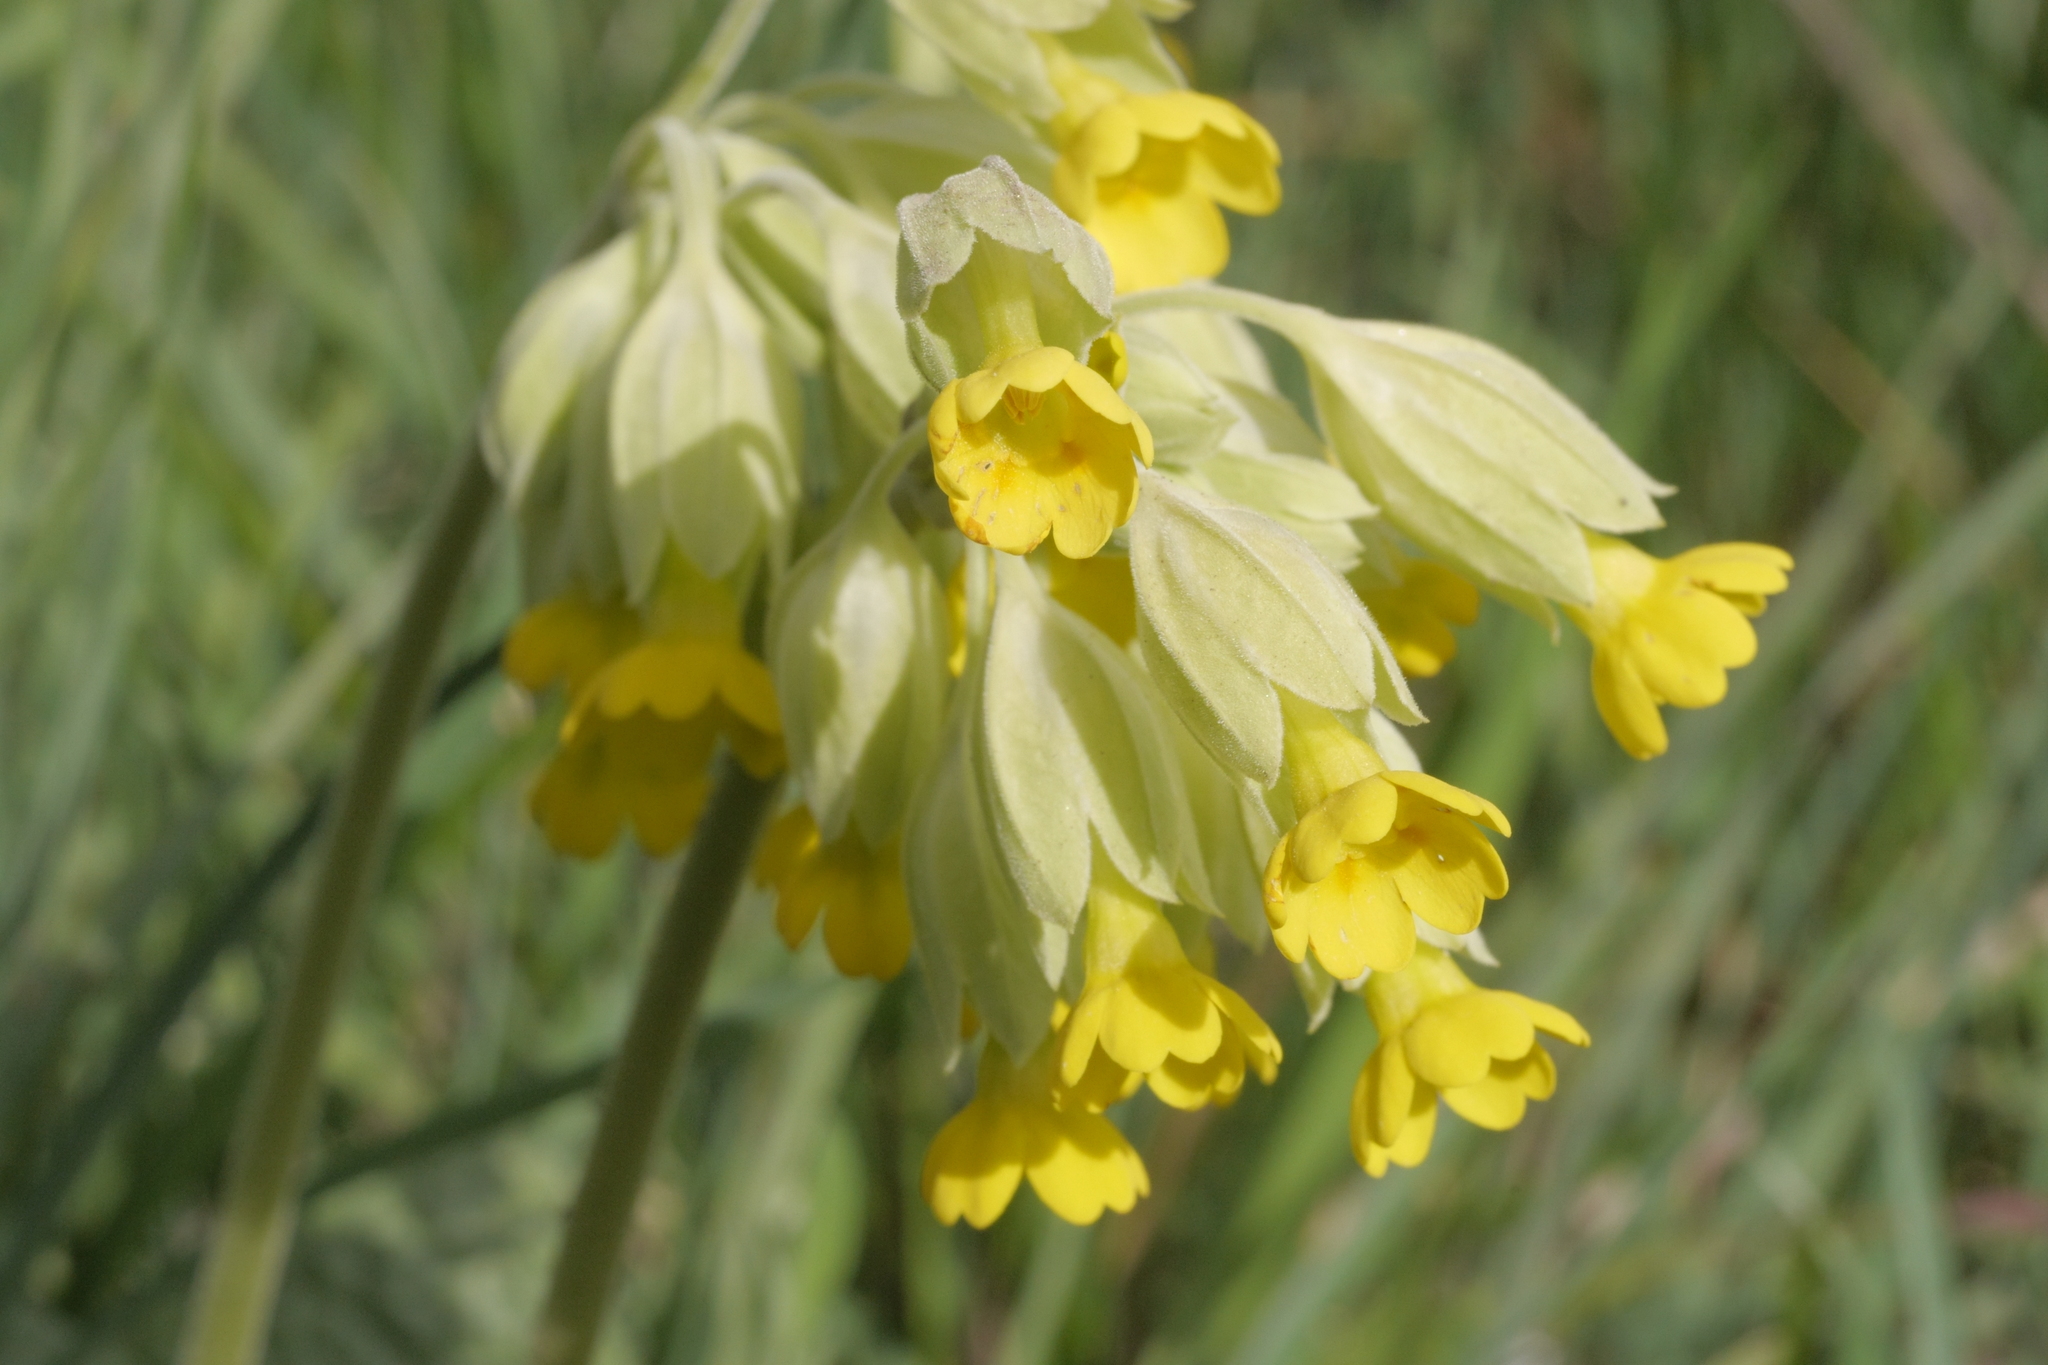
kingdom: Plantae
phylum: Tracheophyta
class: Magnoliopsida
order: Ericales
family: Primulaceae
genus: Primula
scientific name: Primula veris
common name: Cowslip
